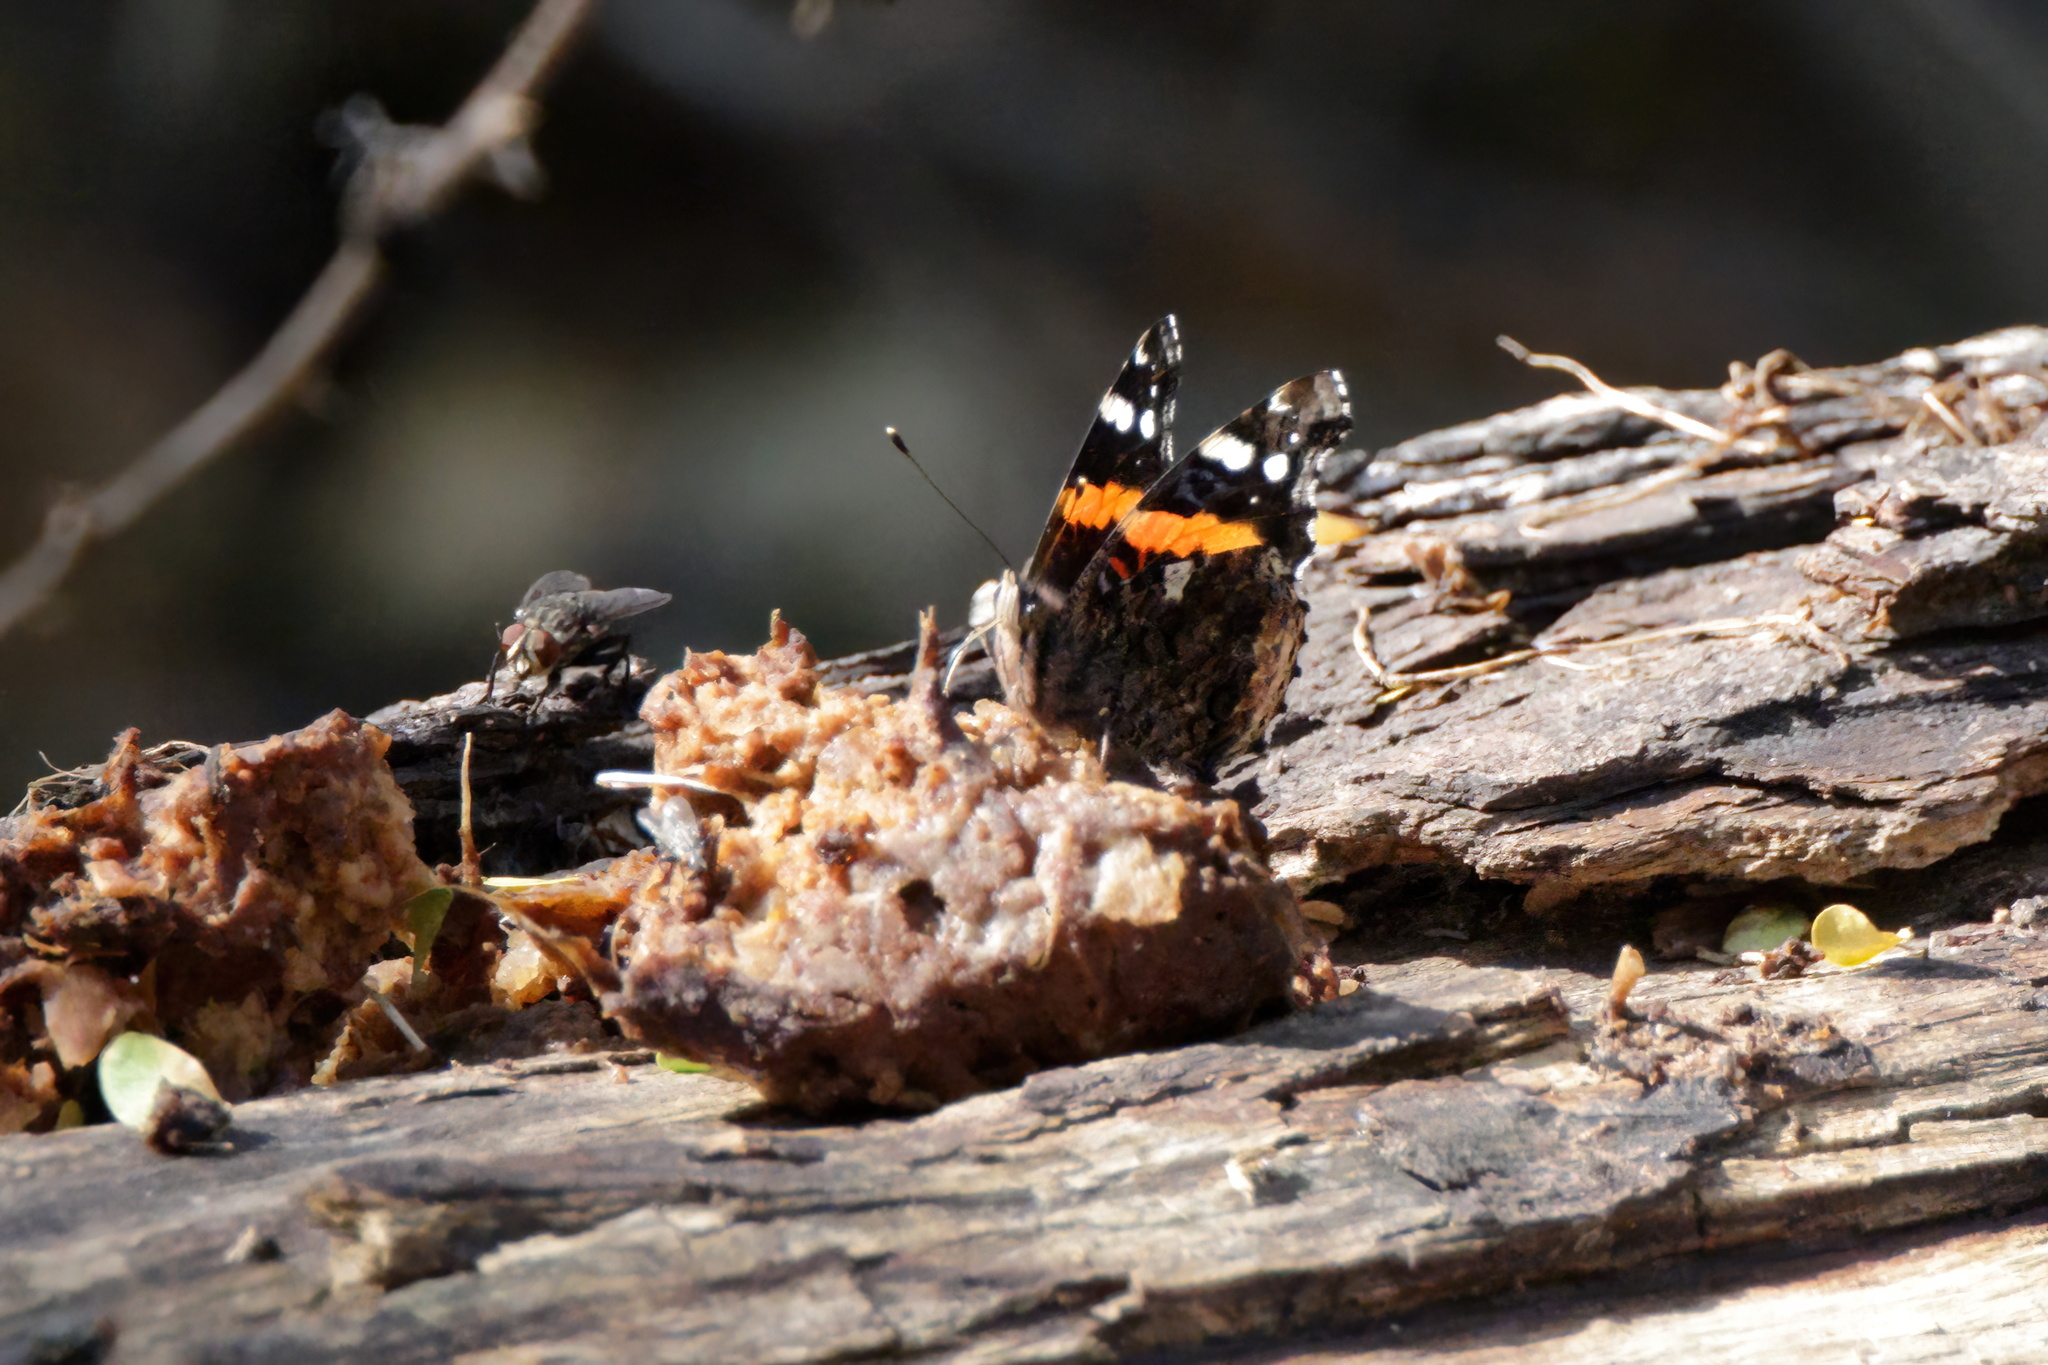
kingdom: Animalia
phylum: Arthropoda
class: Insecta
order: Lepidoptera
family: Nymphalidae
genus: Vanessa
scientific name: Vanessa atalanta
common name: Red admiral
